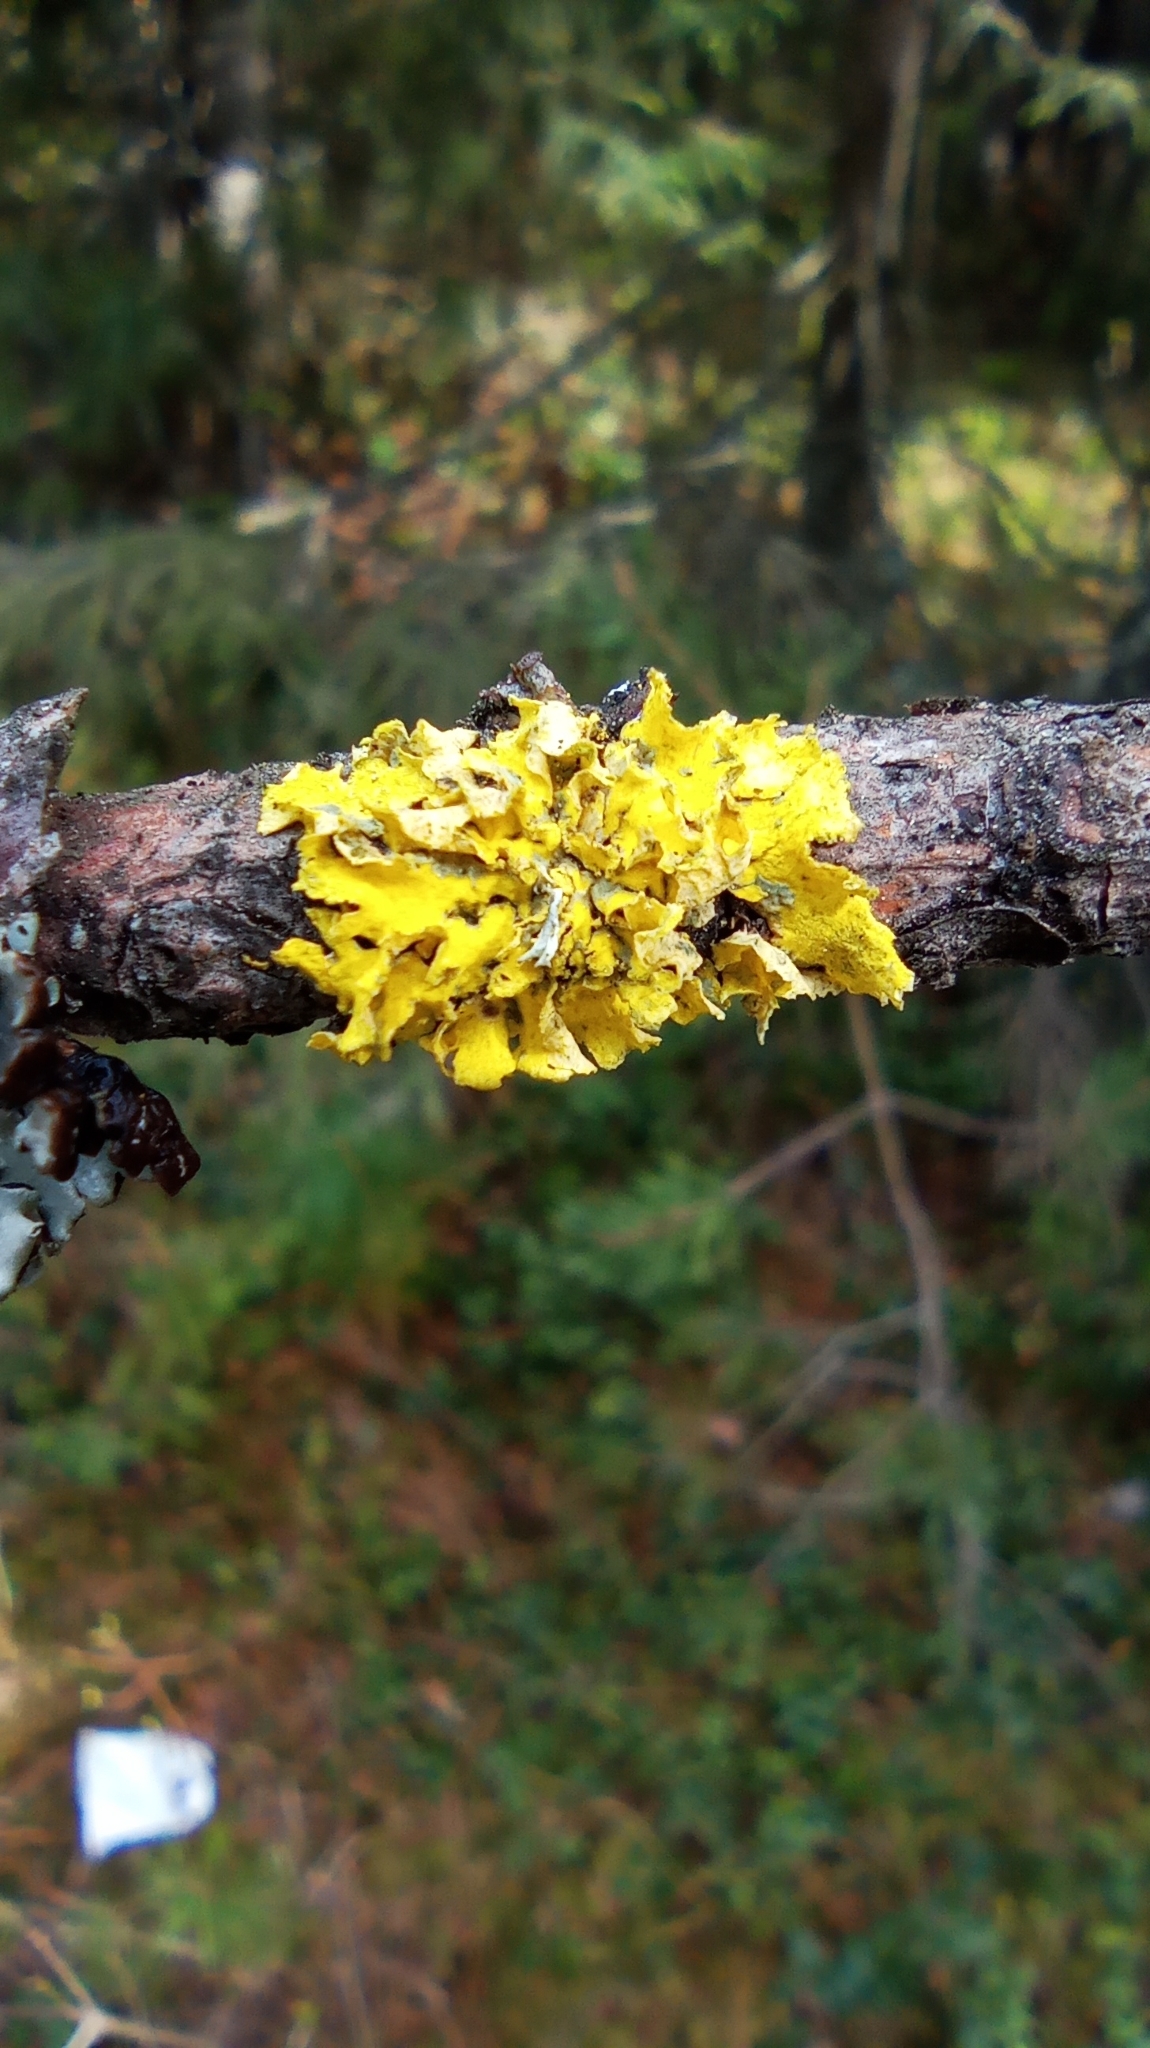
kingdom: Fungi
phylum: Ascomycota
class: Lecanoromycetes
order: Lecanorales
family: Parmeliaceae
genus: Vulpicida
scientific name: Vulpicida pinastri
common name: Powdered sunshine lichen
